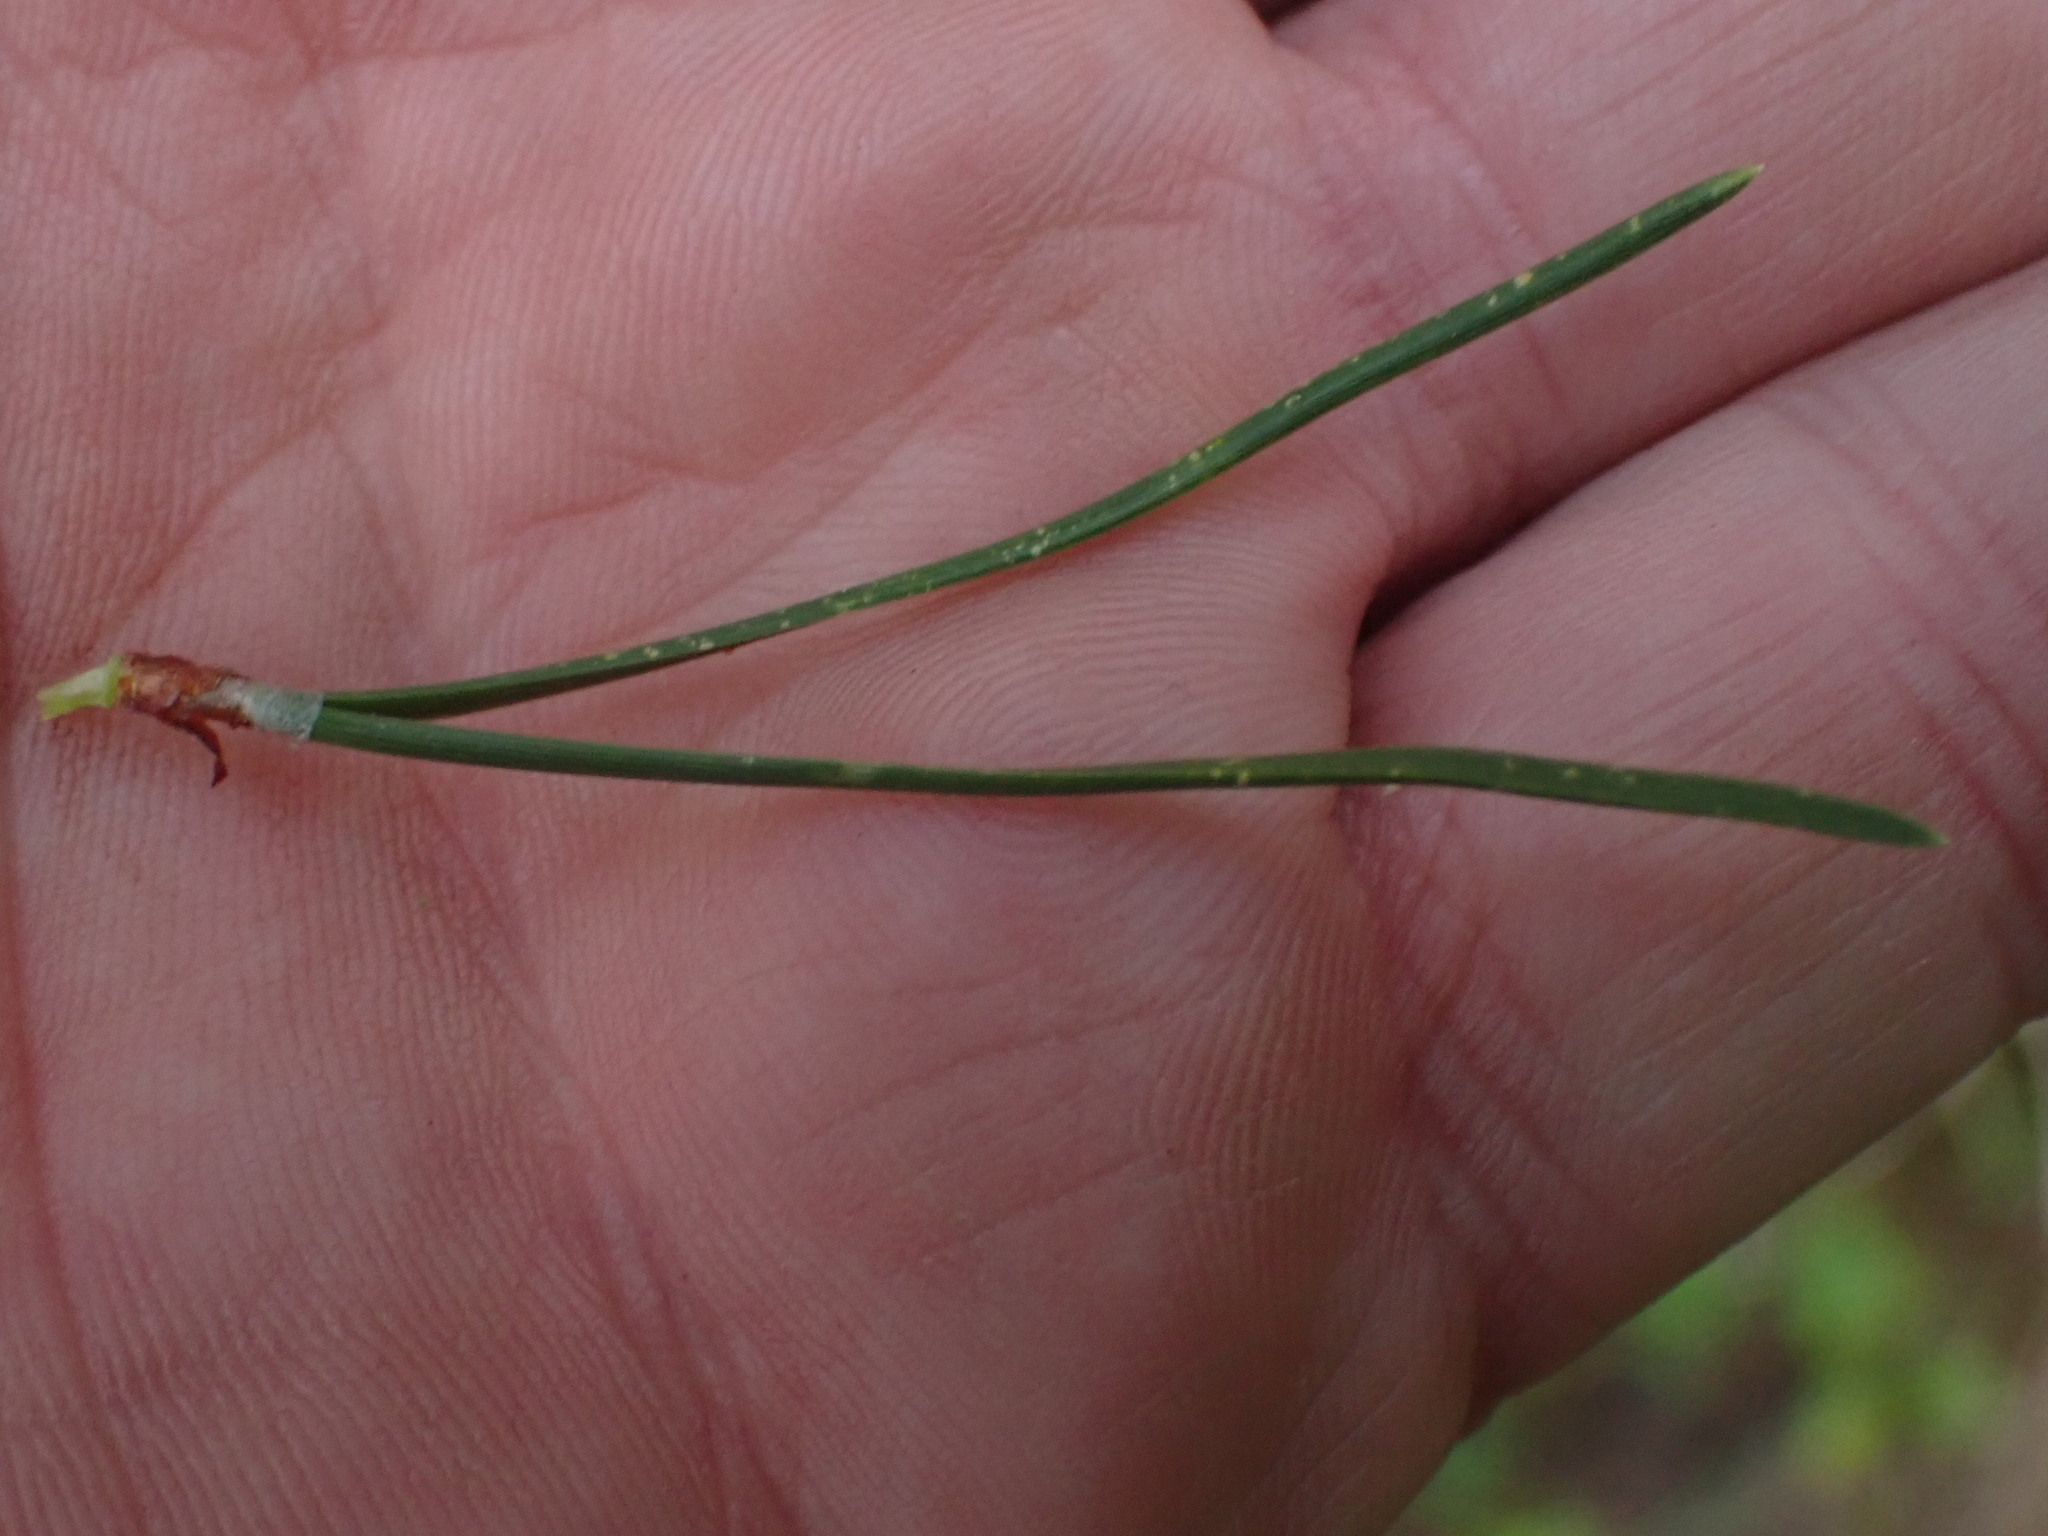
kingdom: Plantae
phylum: Tracheophyta
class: Pinopsida
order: Pinales
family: Pinaceae
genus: Pinus
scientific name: Pinus contorta
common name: Lodgepole pine
